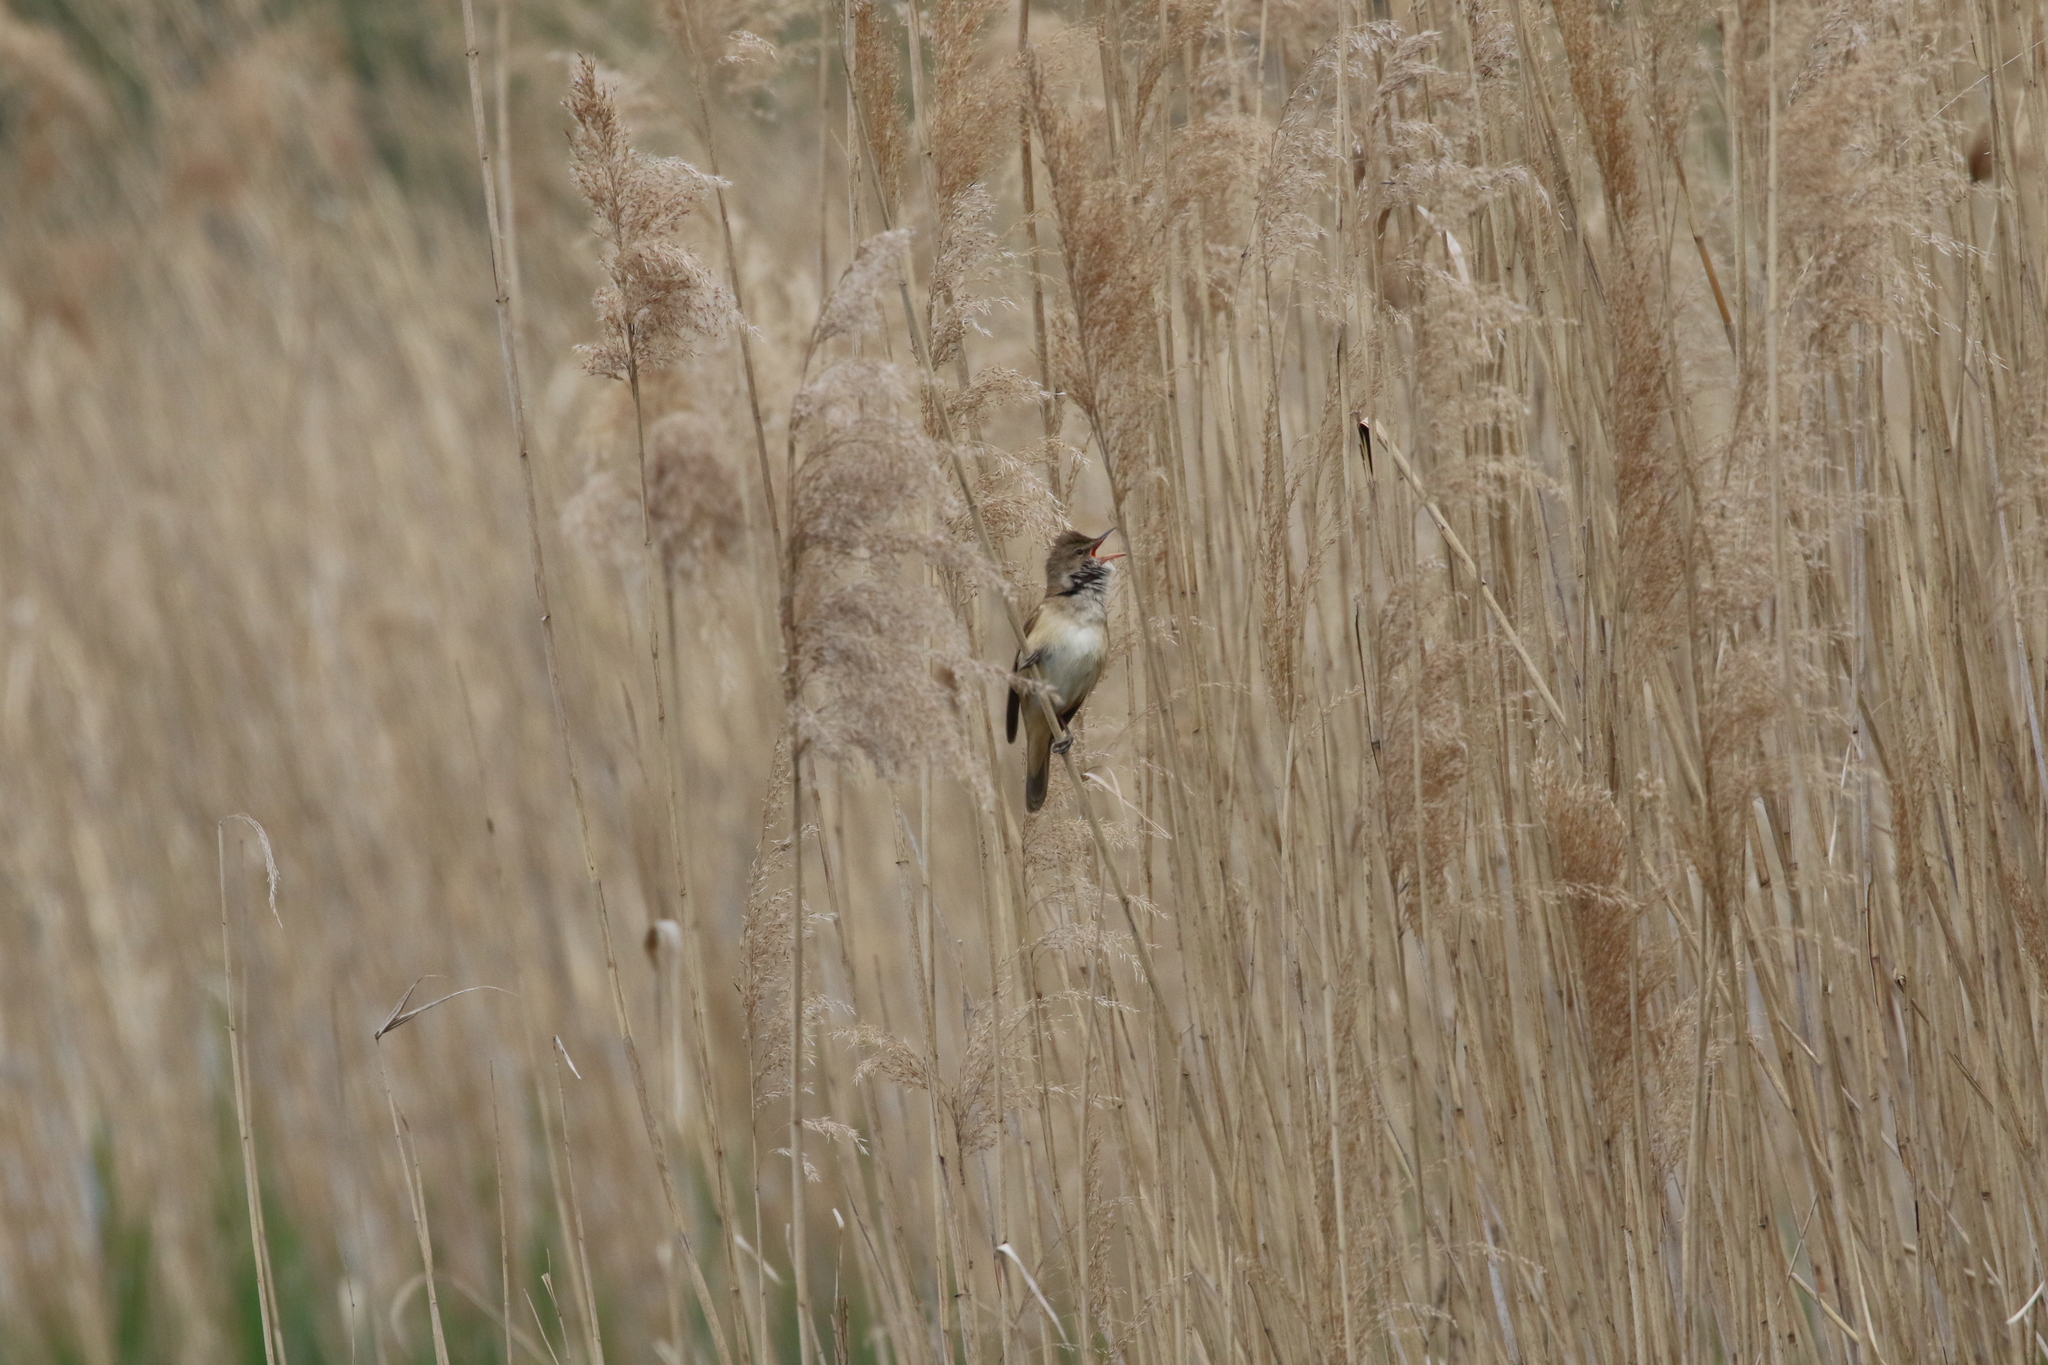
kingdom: Animalia
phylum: Chordata
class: Aves
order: Passeriformes
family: Acrocephalidae
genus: Acrocephalus
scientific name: Acrocephalus arundinaceus
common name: Great reed warbler
